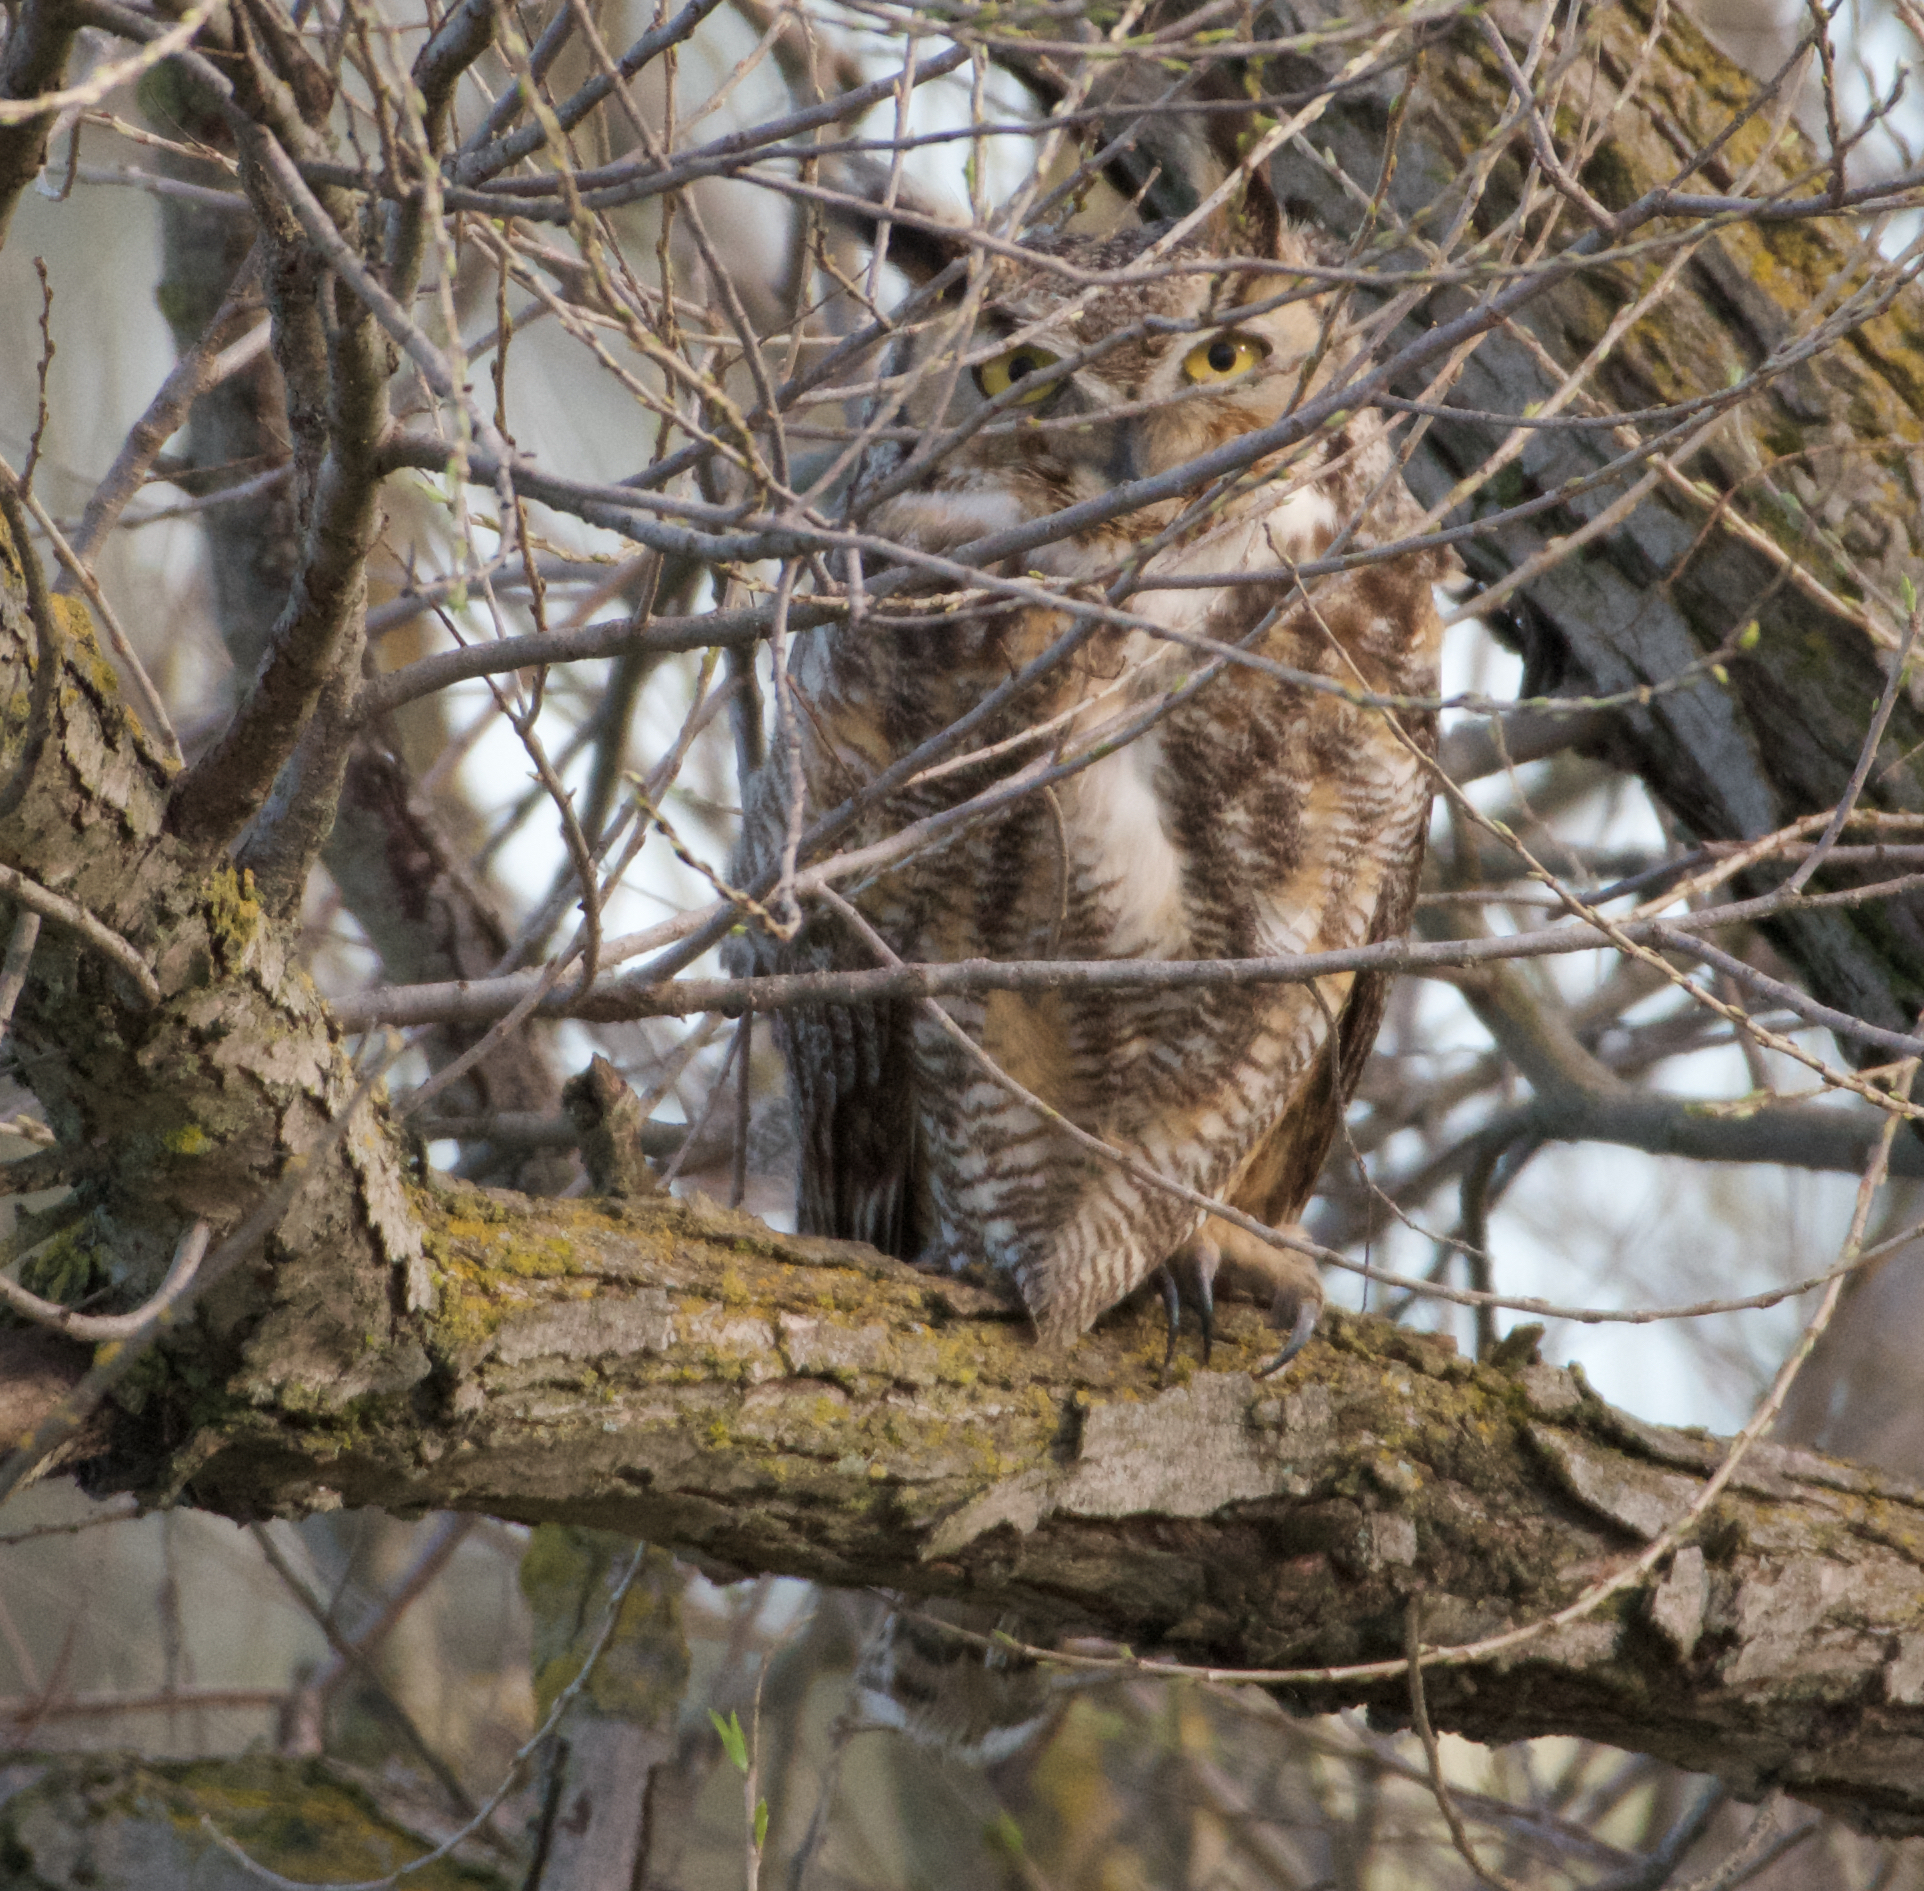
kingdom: Animalia
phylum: Chordata
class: Aves
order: Strigiformes
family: Strigidae
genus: Bubo
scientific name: Bubo virginianus
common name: Great horned owl
